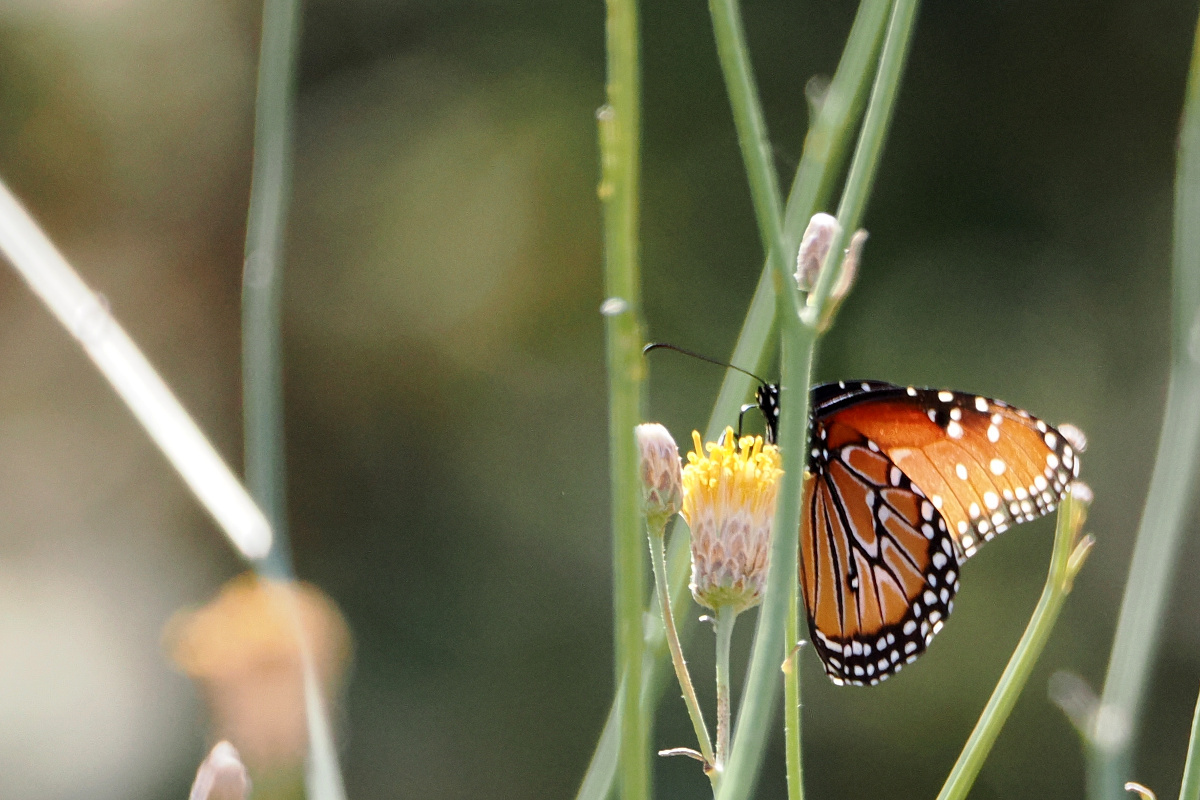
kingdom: Animalia
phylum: Arthropoda
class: Insecta
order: Lepidoptera
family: Nymphalidae
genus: Danaus
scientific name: Danaus gilippus
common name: Queen
